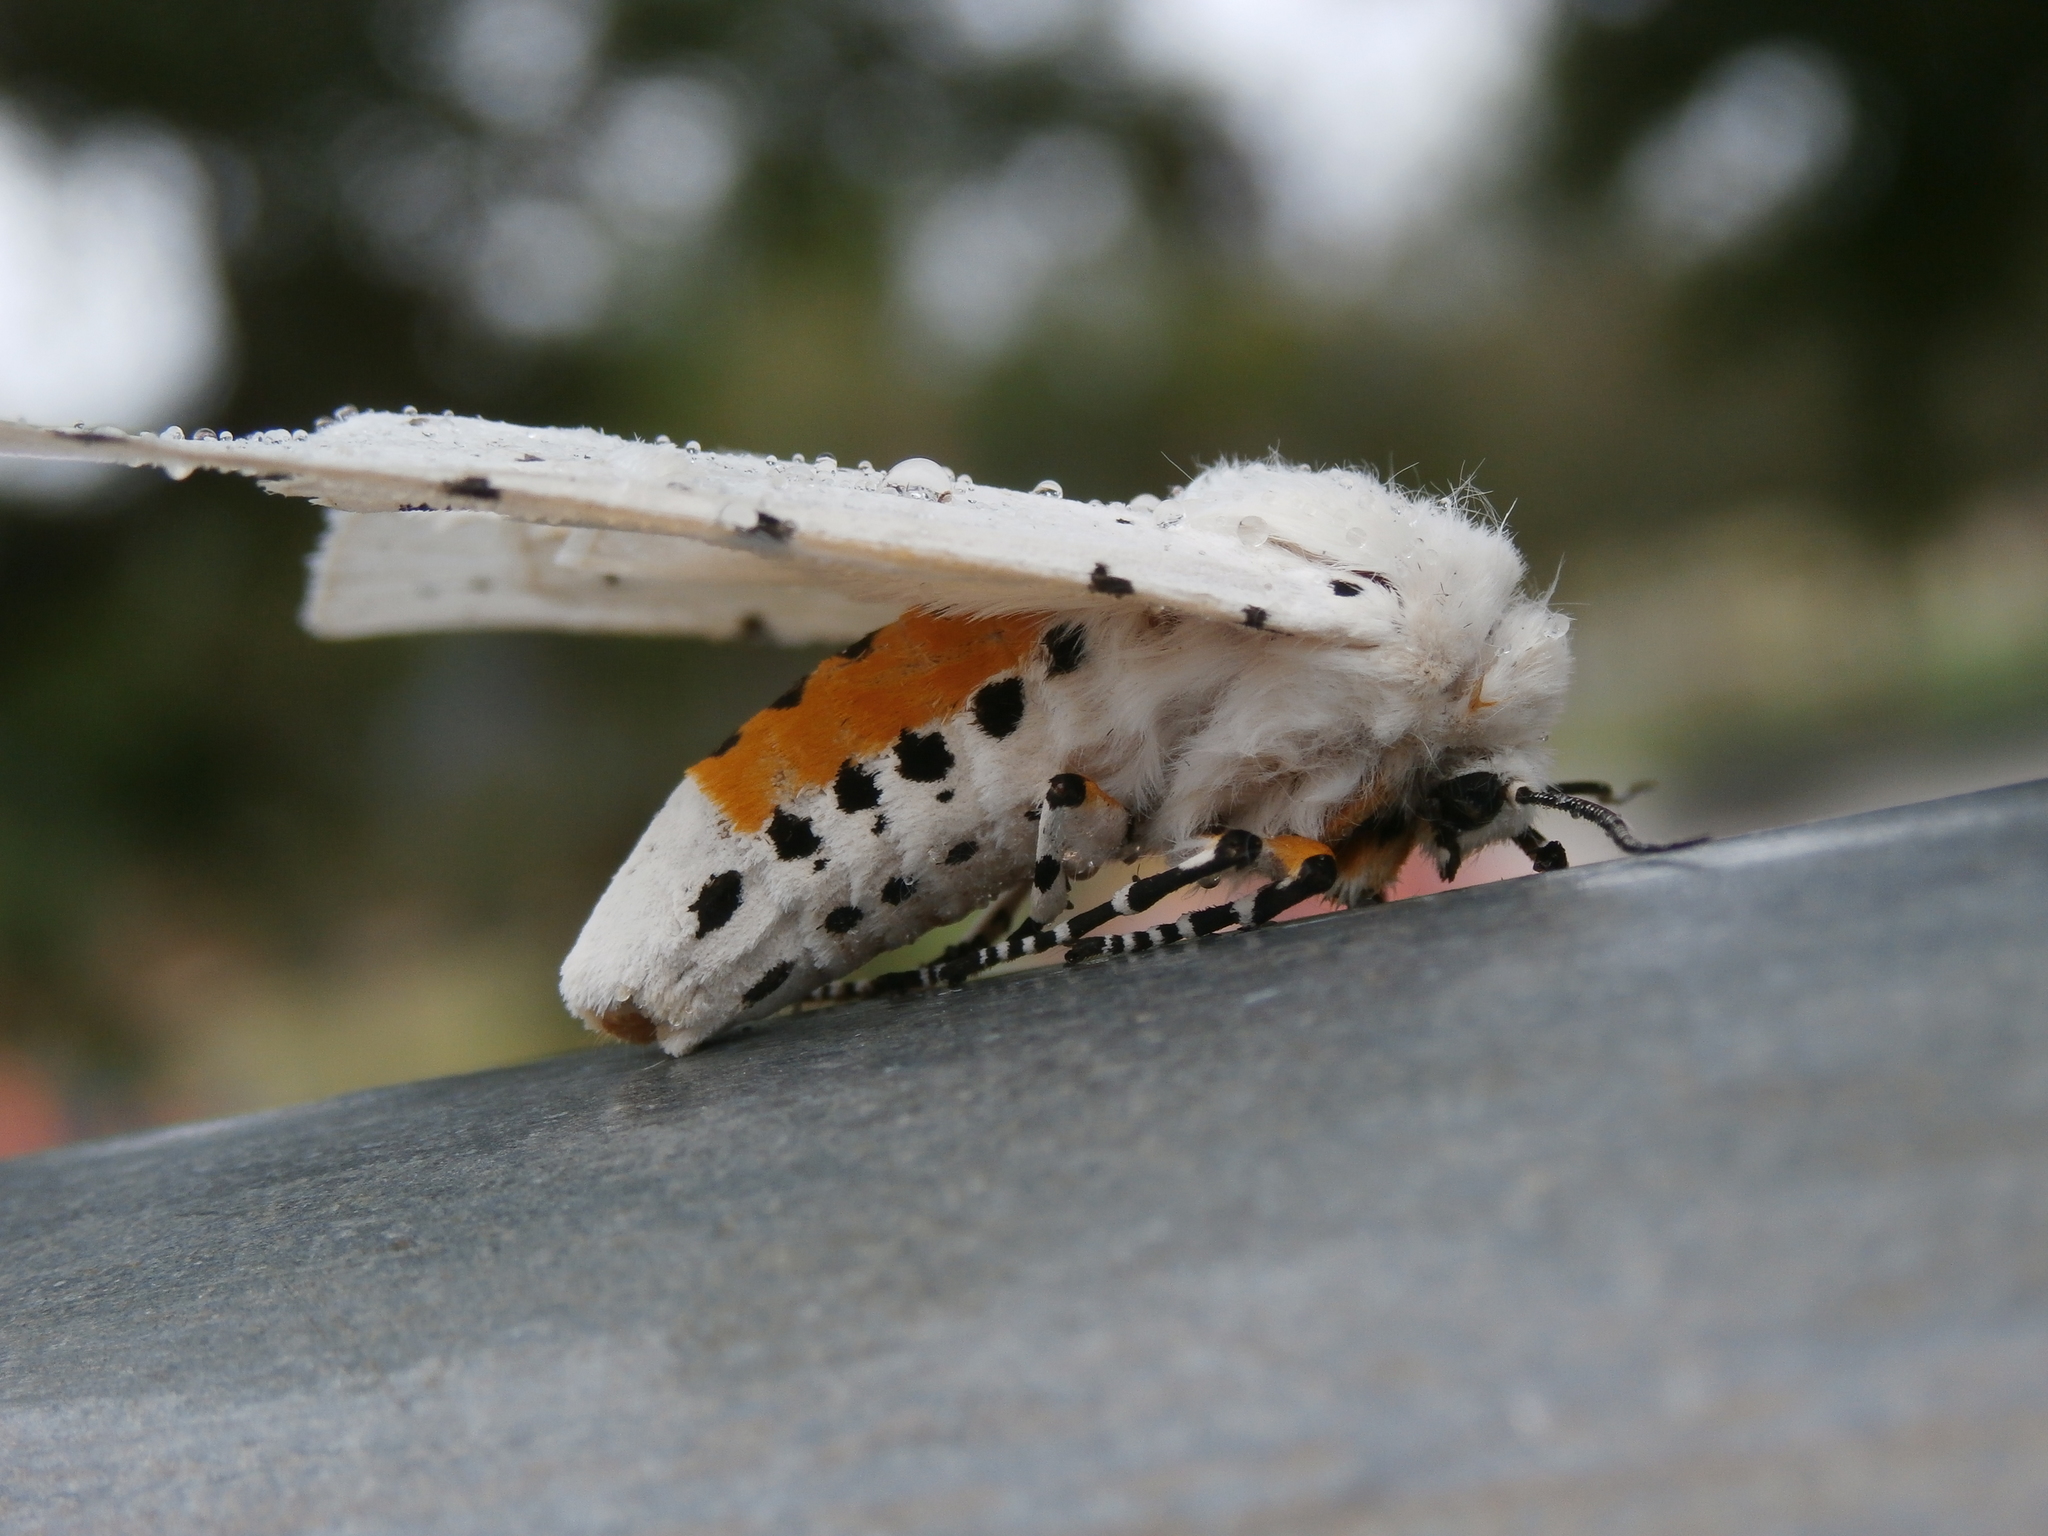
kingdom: Animalia
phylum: Arthropoda
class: Insecta
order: Lepidoptera
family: Erebidae
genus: Estigmene
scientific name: Estigmene acrea
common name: Salt marsh moth
